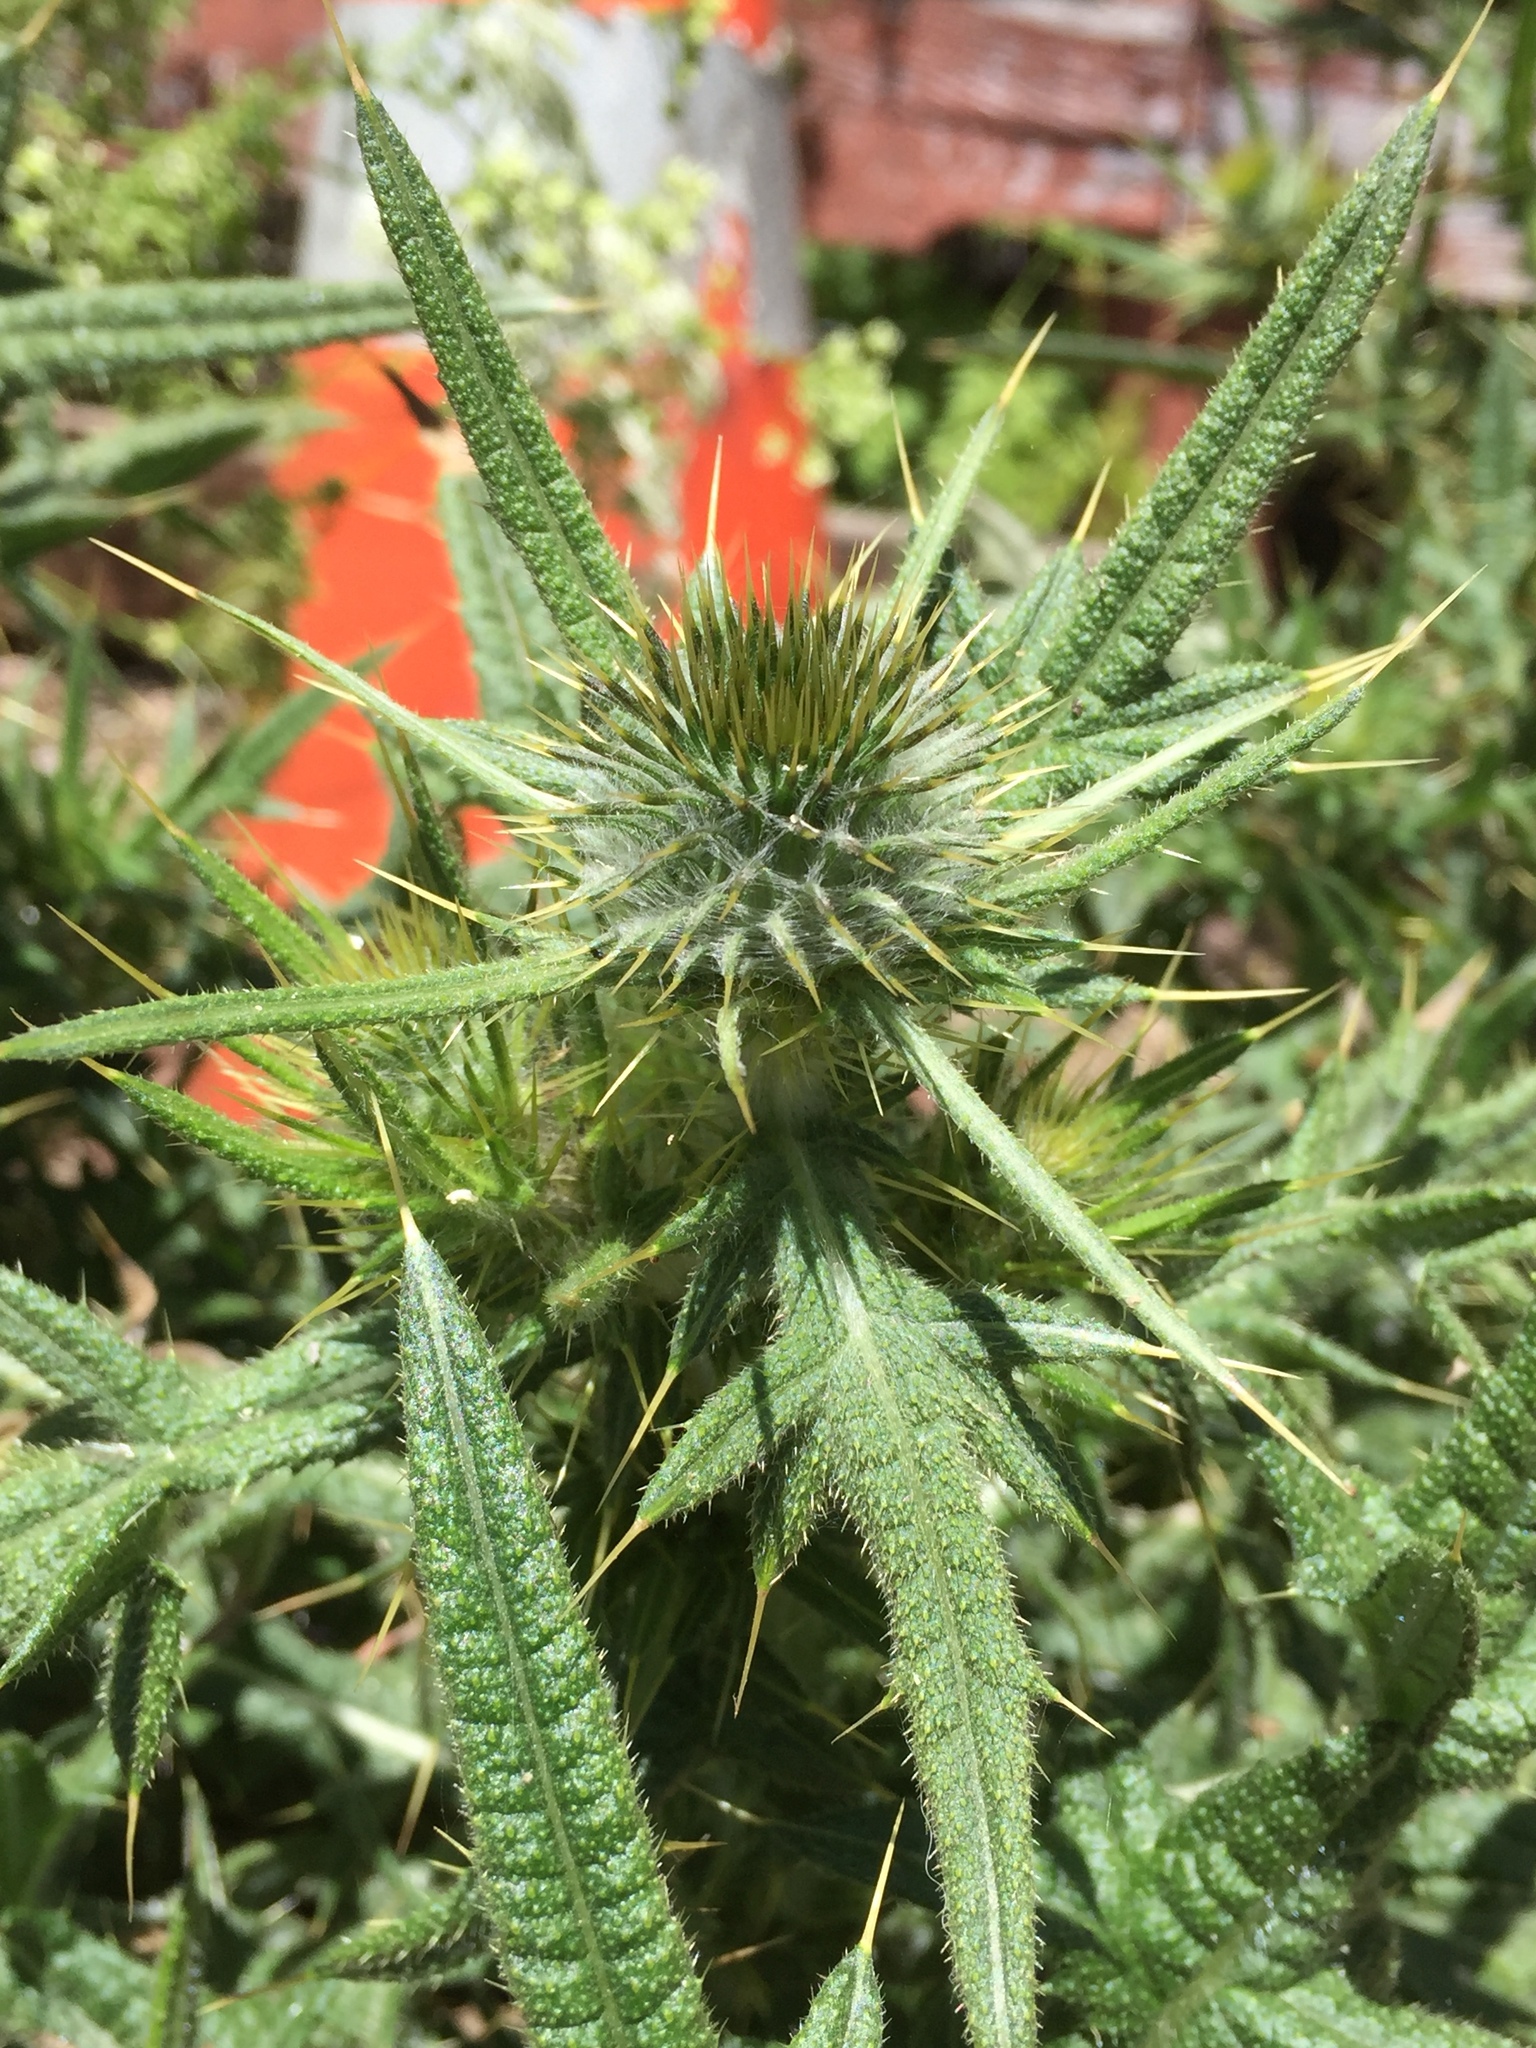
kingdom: Plantae
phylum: Tracheophyta
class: Magnoliopsida
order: Asterales
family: Asteraceae
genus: Cirsium
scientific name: Cirsium vulgare
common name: Bull thistle
